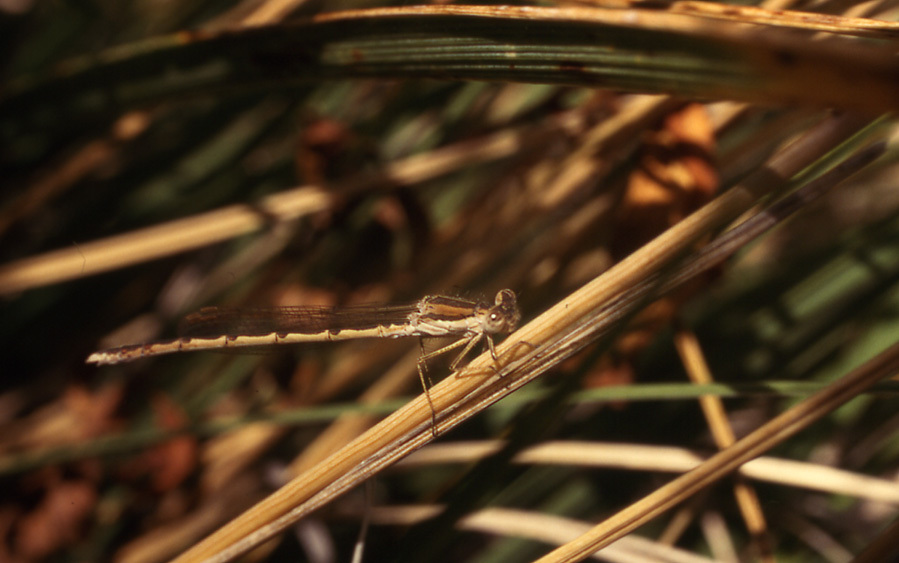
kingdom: Animalia
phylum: Arthropoda
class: Insecta
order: Odonata
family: Lestidae
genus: Sympecma
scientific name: Sympecma fusca
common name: Common winter damsel
